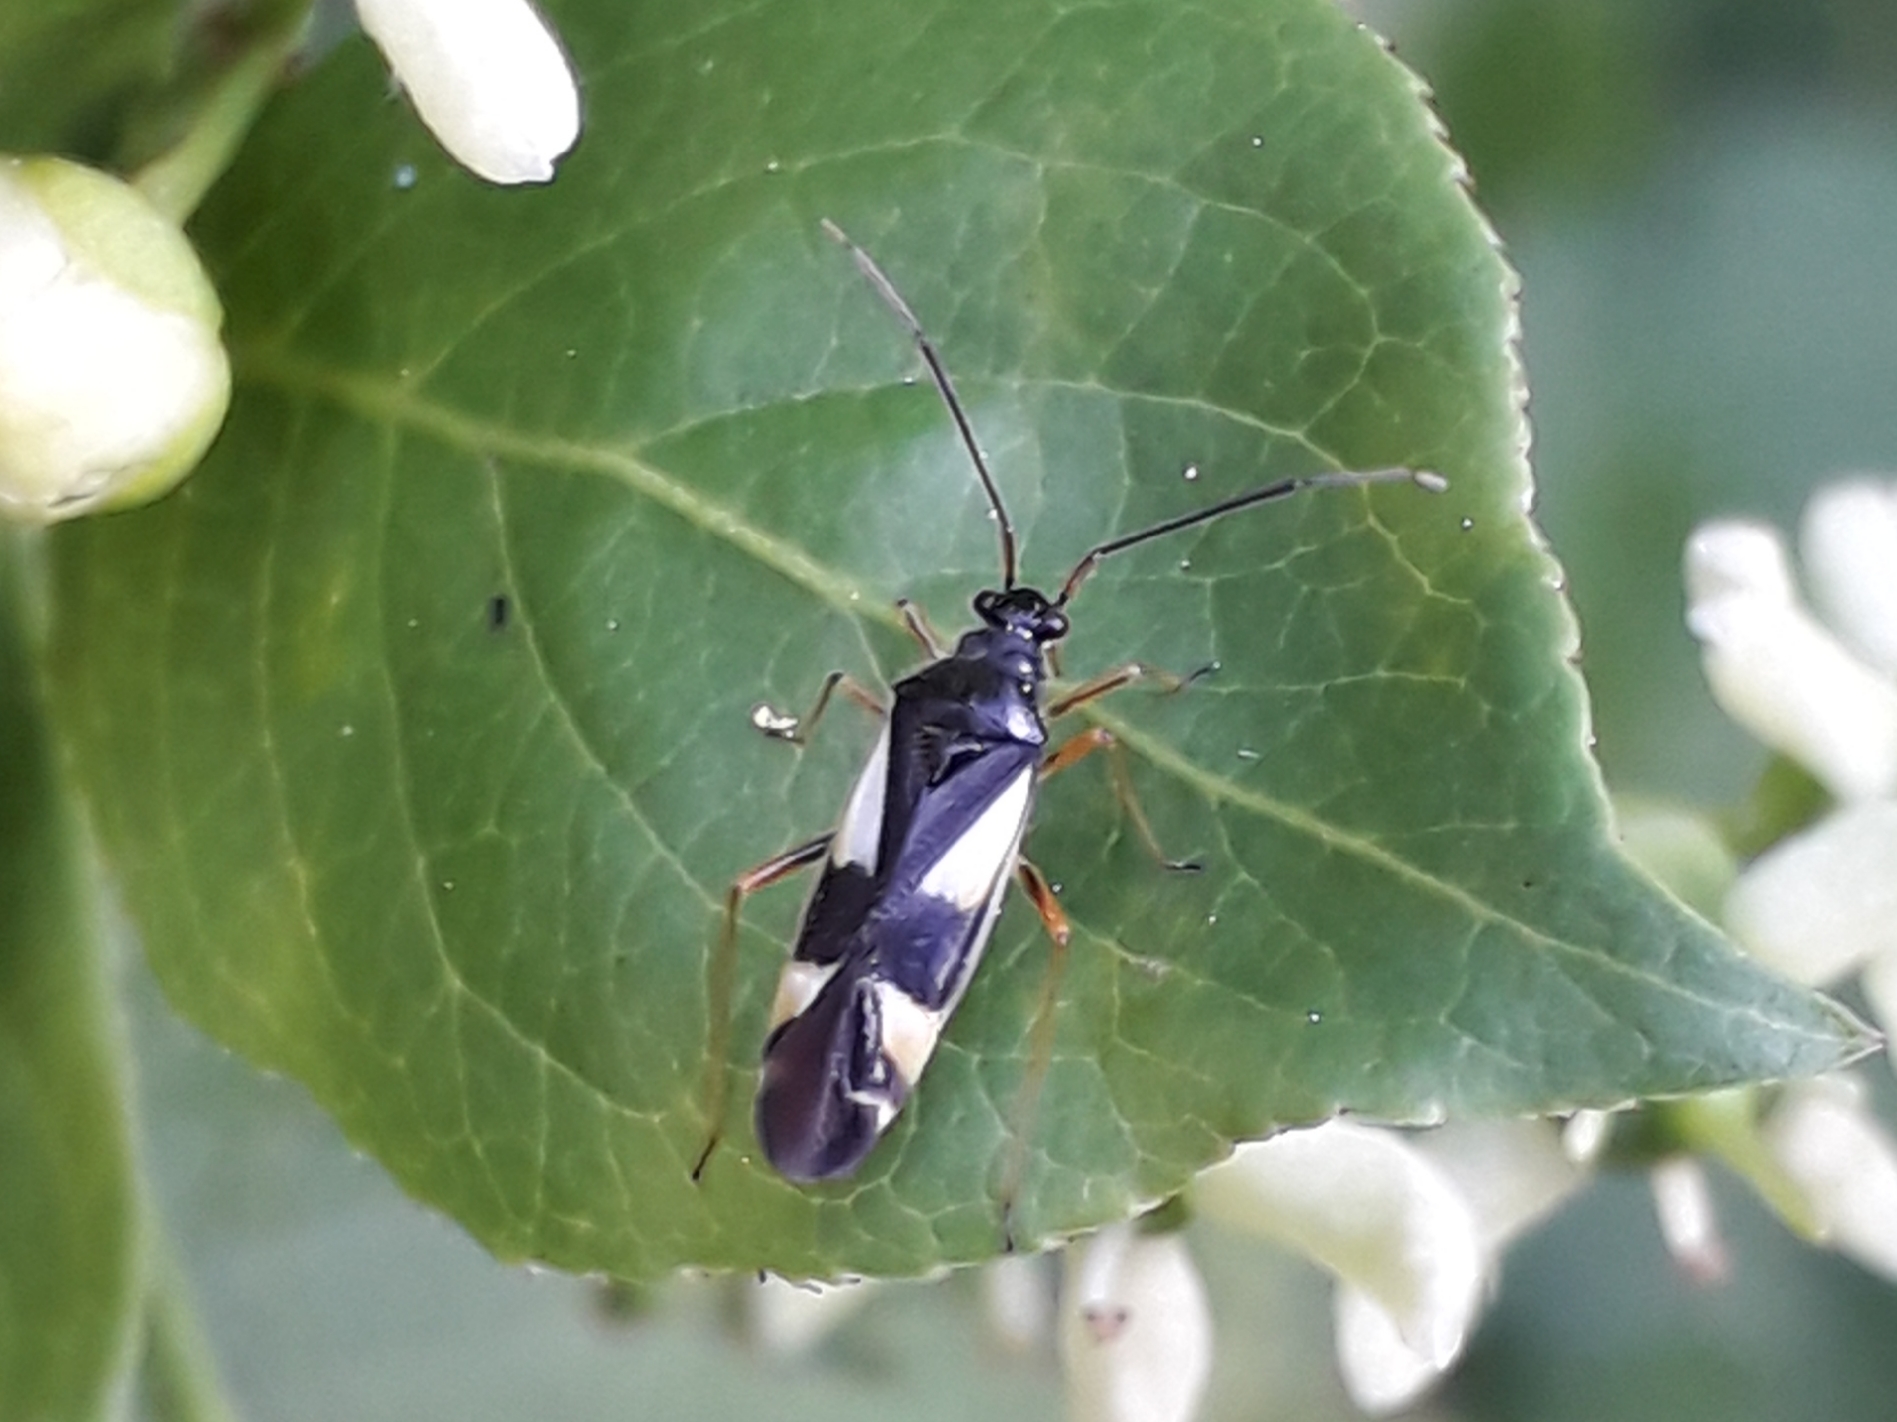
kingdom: Animalia
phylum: Arthropoda
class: Insecta
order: Hemiptera
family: Miridae
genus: Dryophilocoris
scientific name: Dryophilocoris flavoquadrimaculatus
